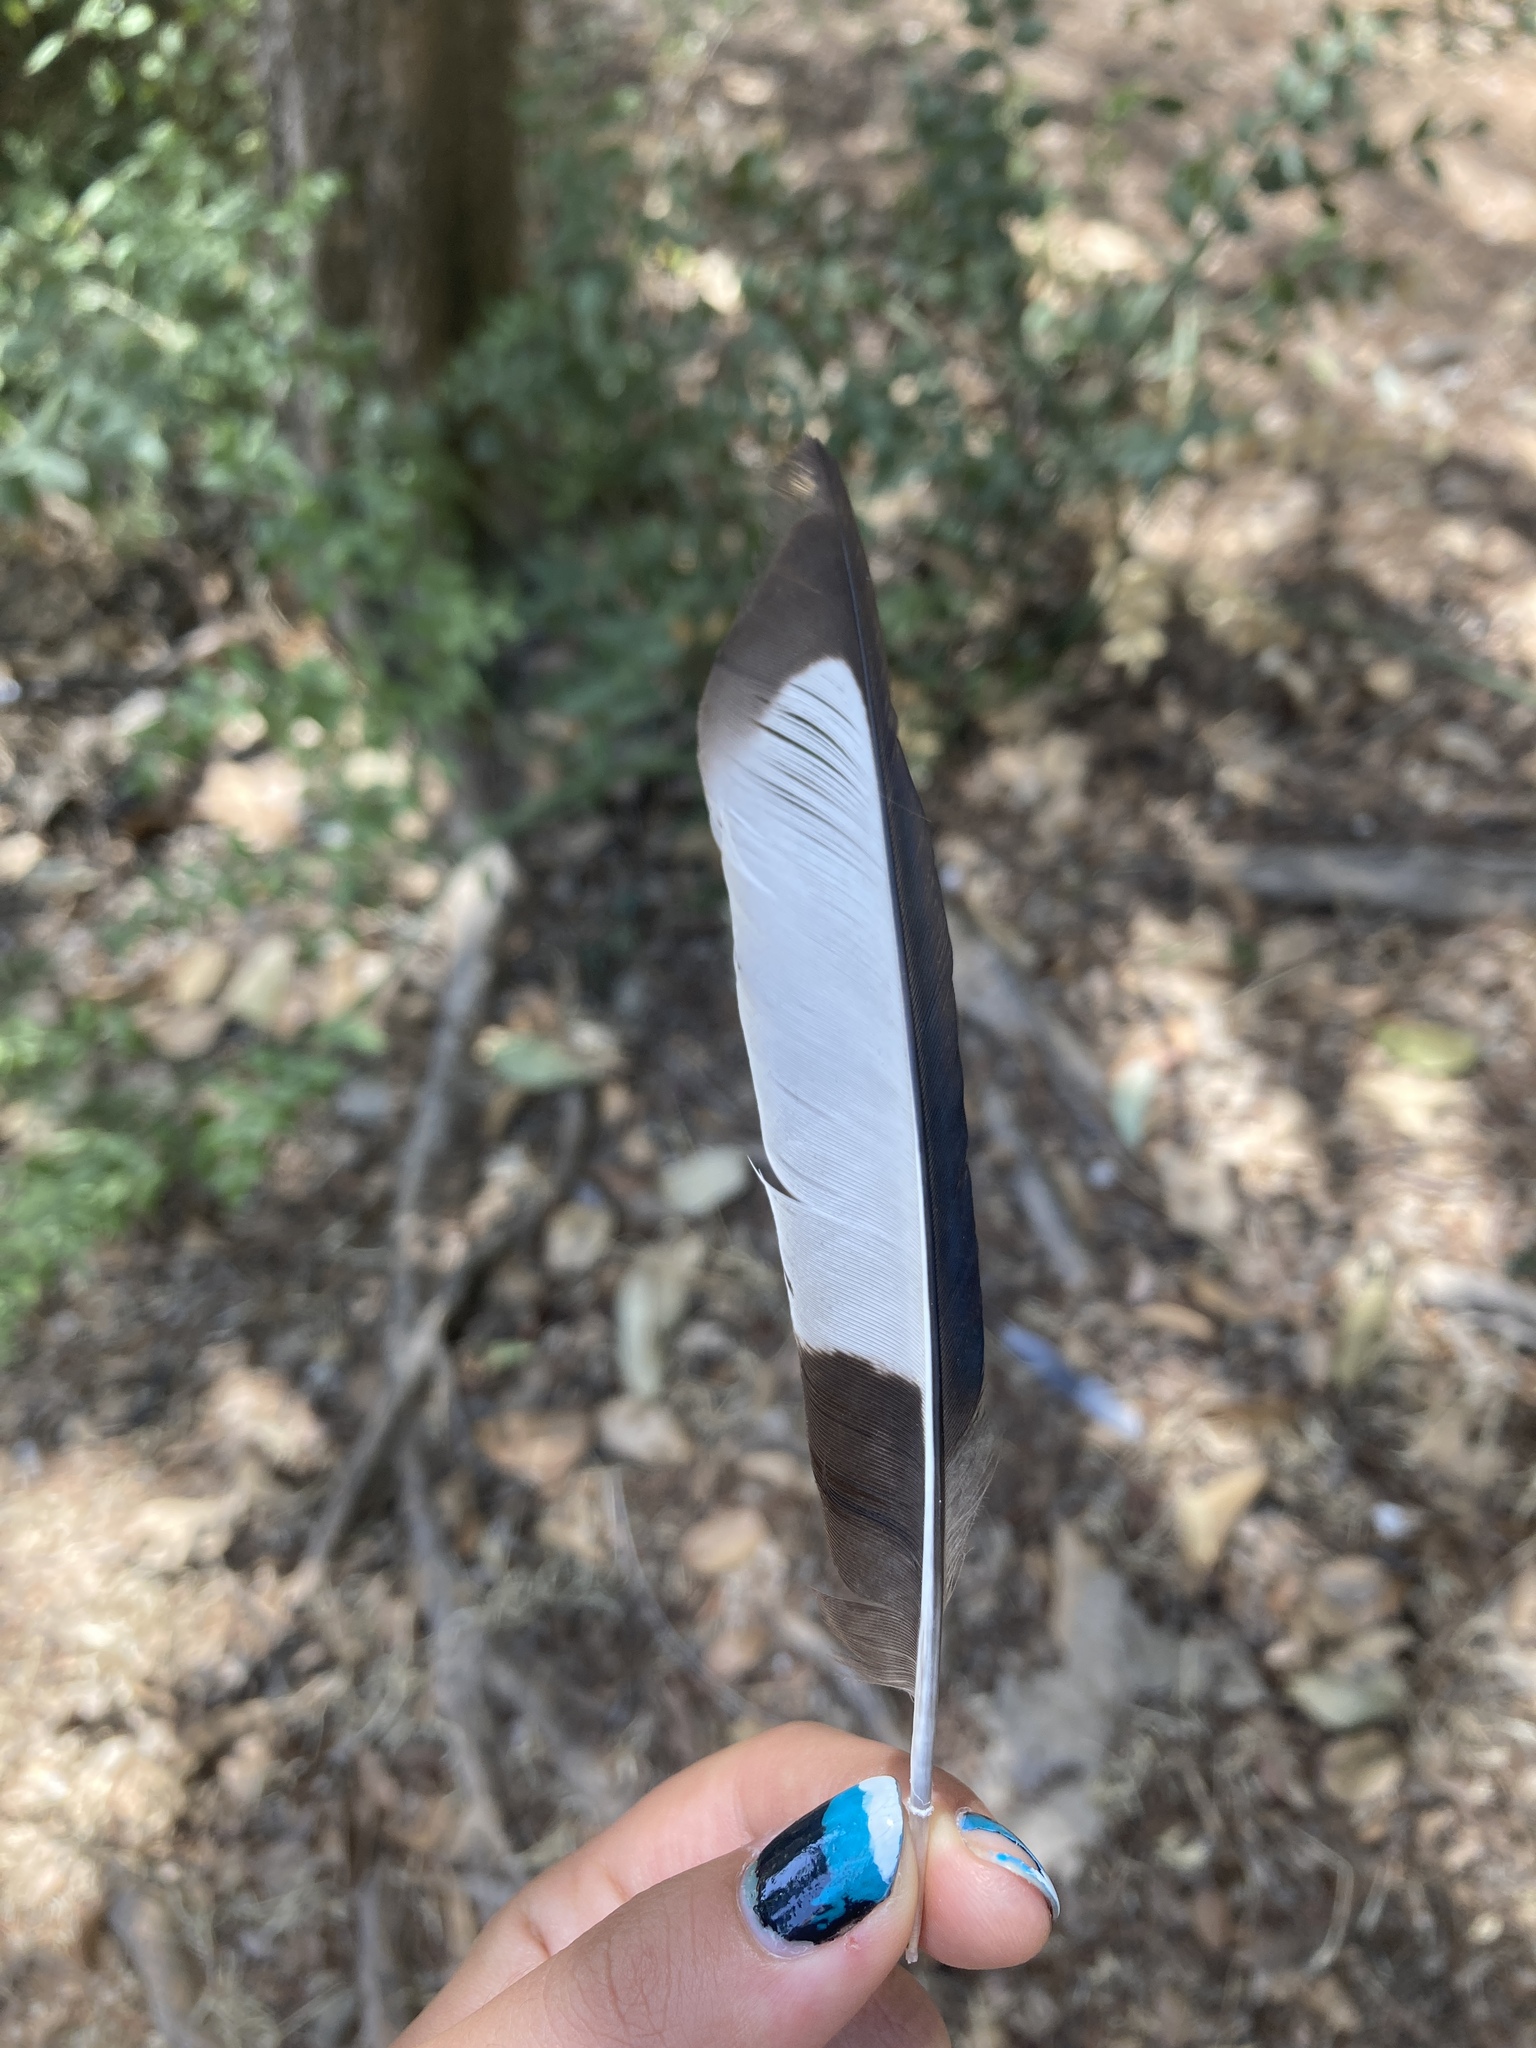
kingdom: Animalia
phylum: Chordata
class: Aves
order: Passeriformes
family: Corvidae
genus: Pica
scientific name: Pica pica
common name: Eurasian magpie
